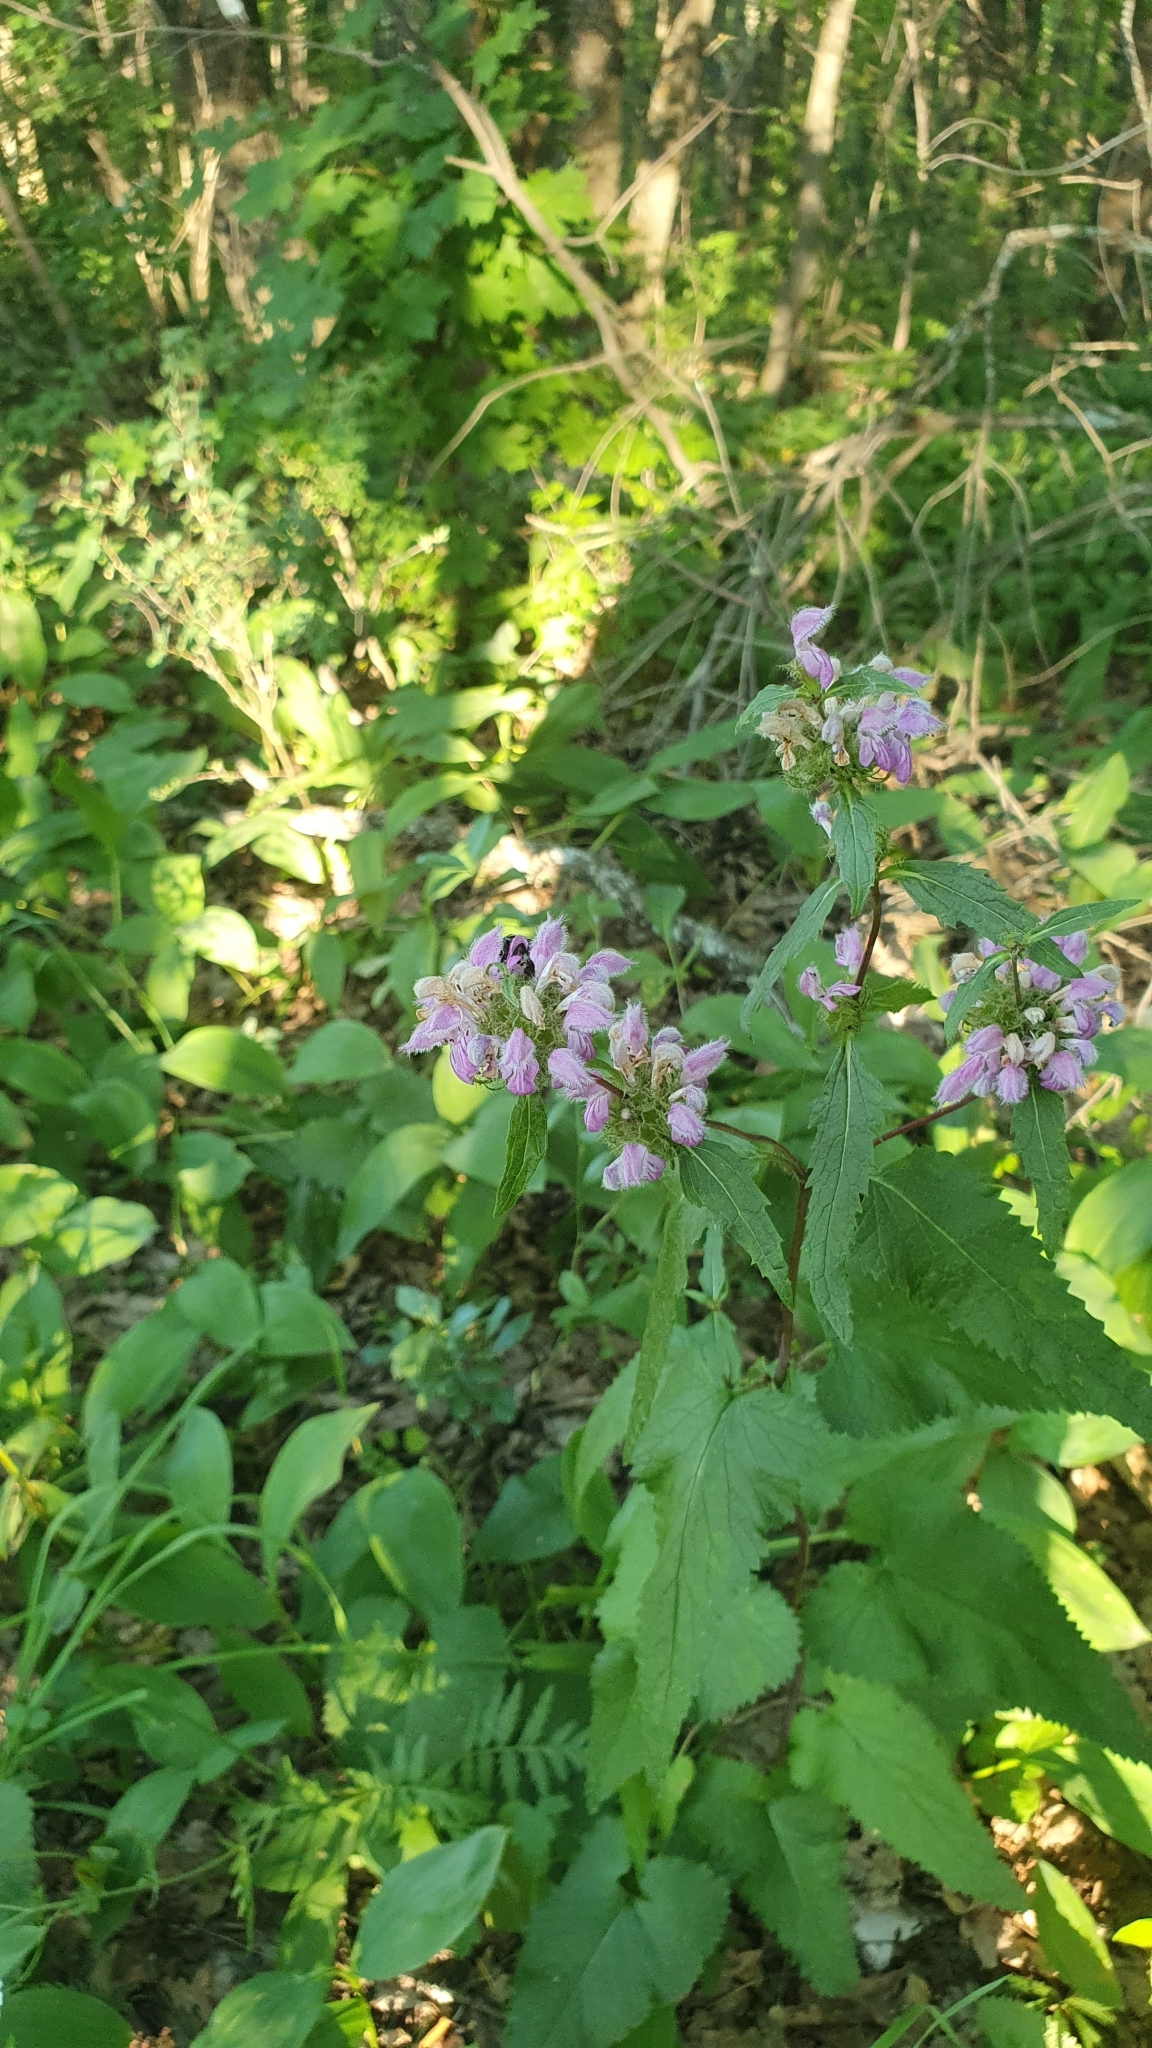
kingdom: Plantae
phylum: Tracheophyta
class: Magnoliopsida
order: Lamiales
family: Lamiaceae
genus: Phlomoides
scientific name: Phlomoides tuberosa
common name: Tuberous jerusalem sage
